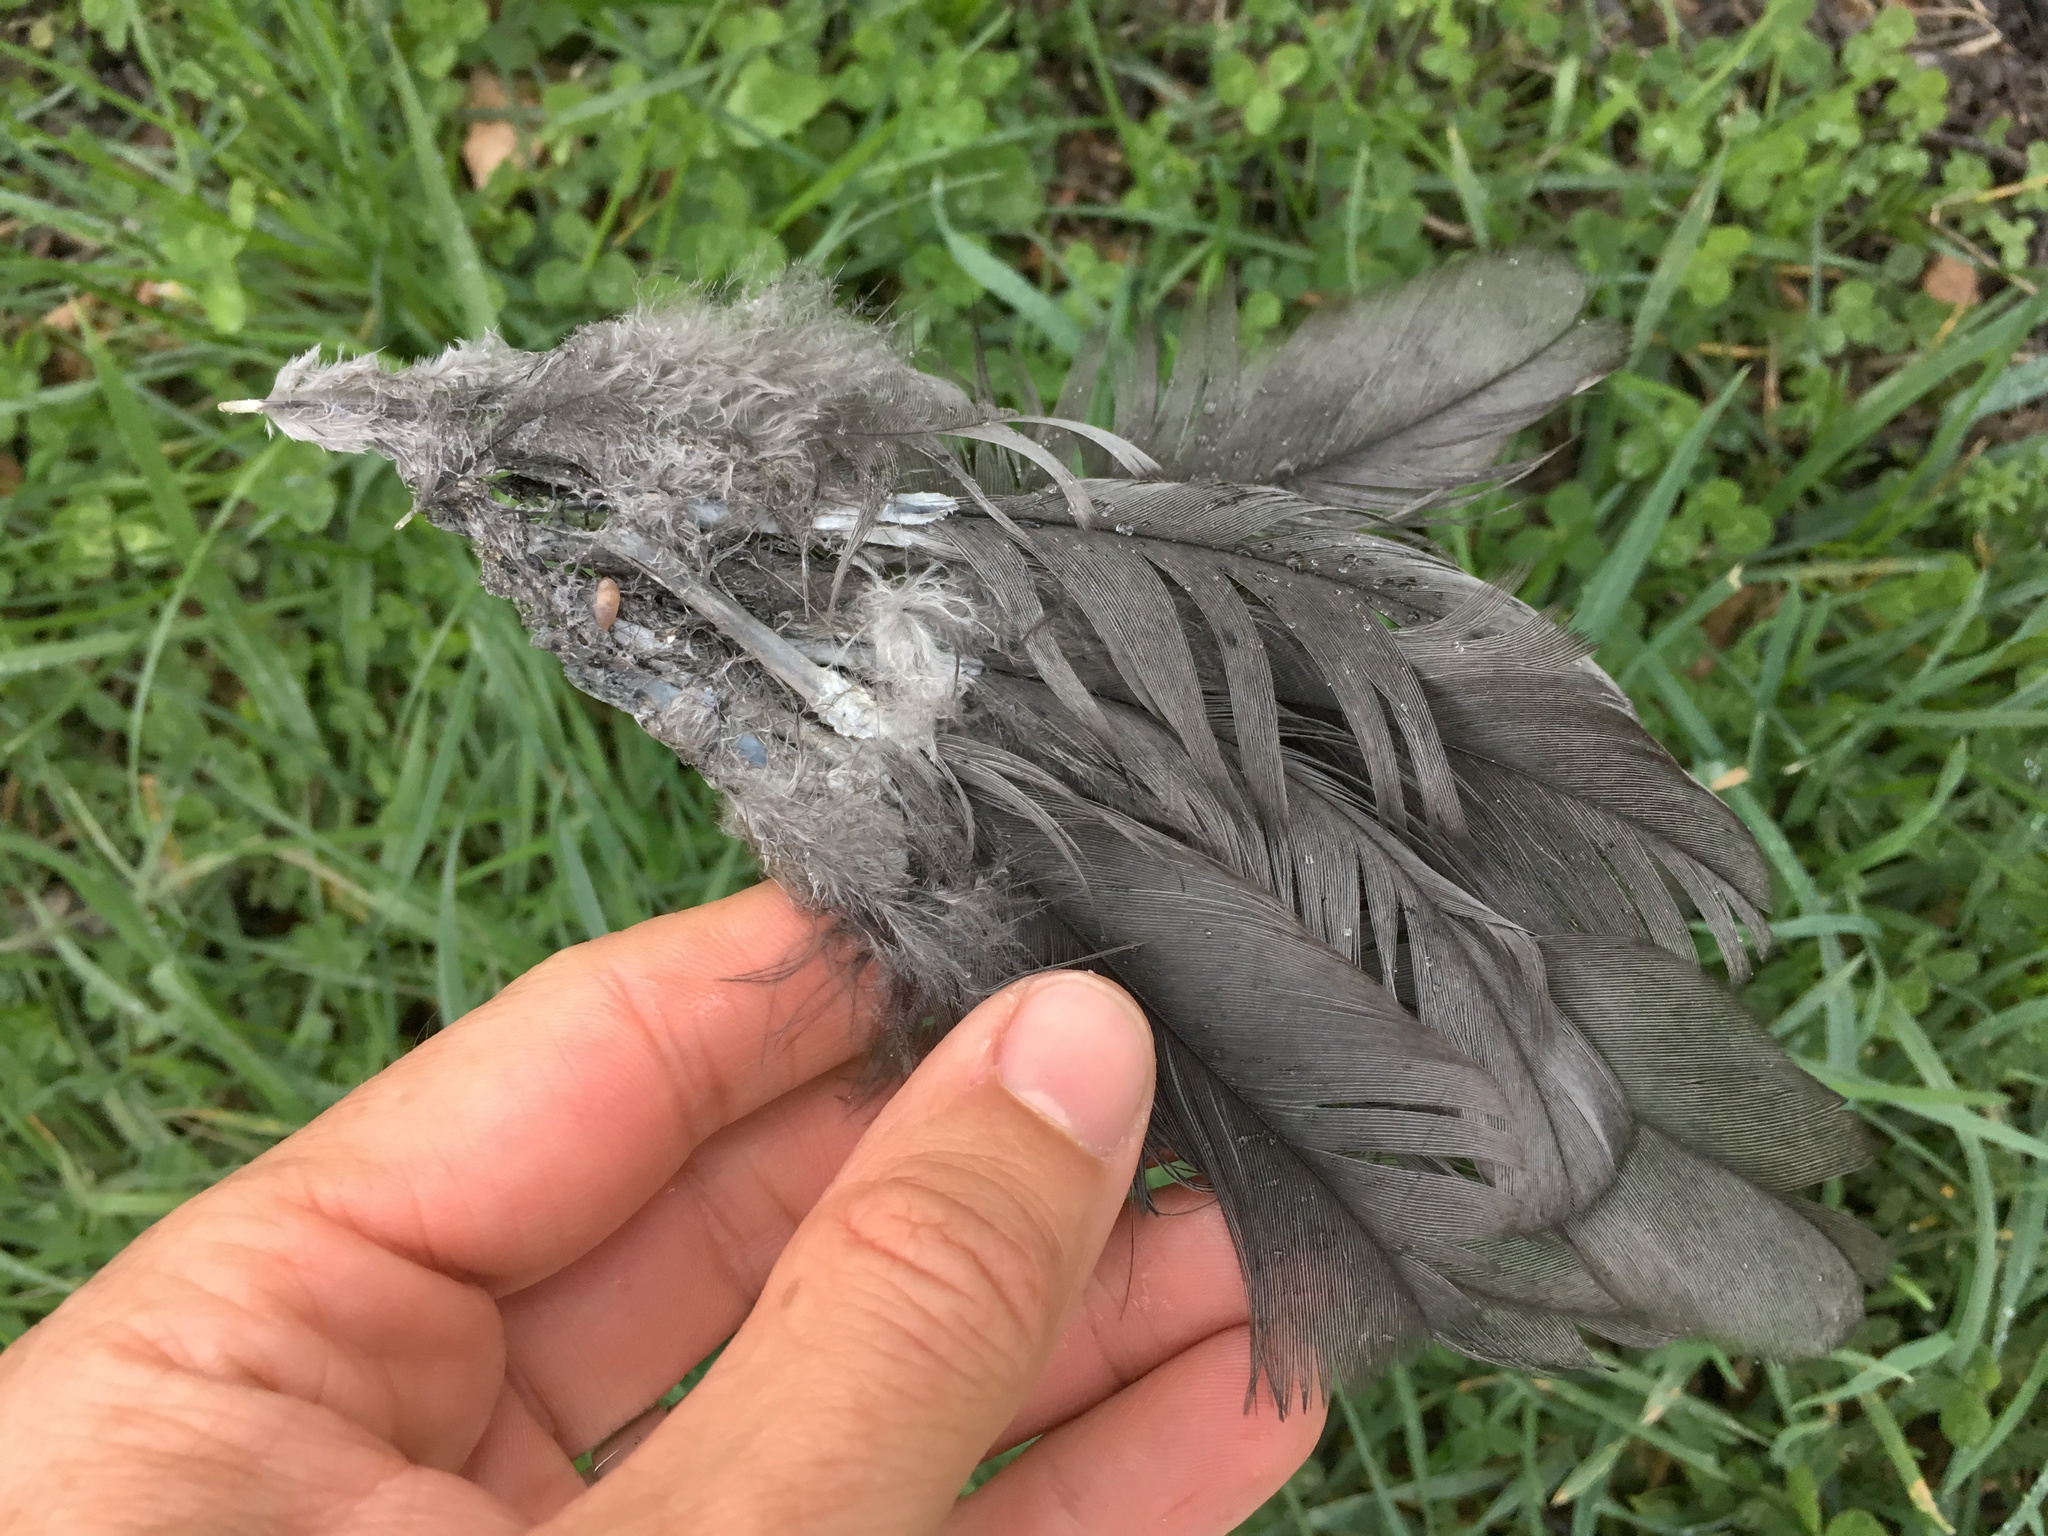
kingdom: Animalia
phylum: Chordata
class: Aves
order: Galliformes
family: Phasianidae
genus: Gallus
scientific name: Gallus gallus
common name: Red junglefowl
